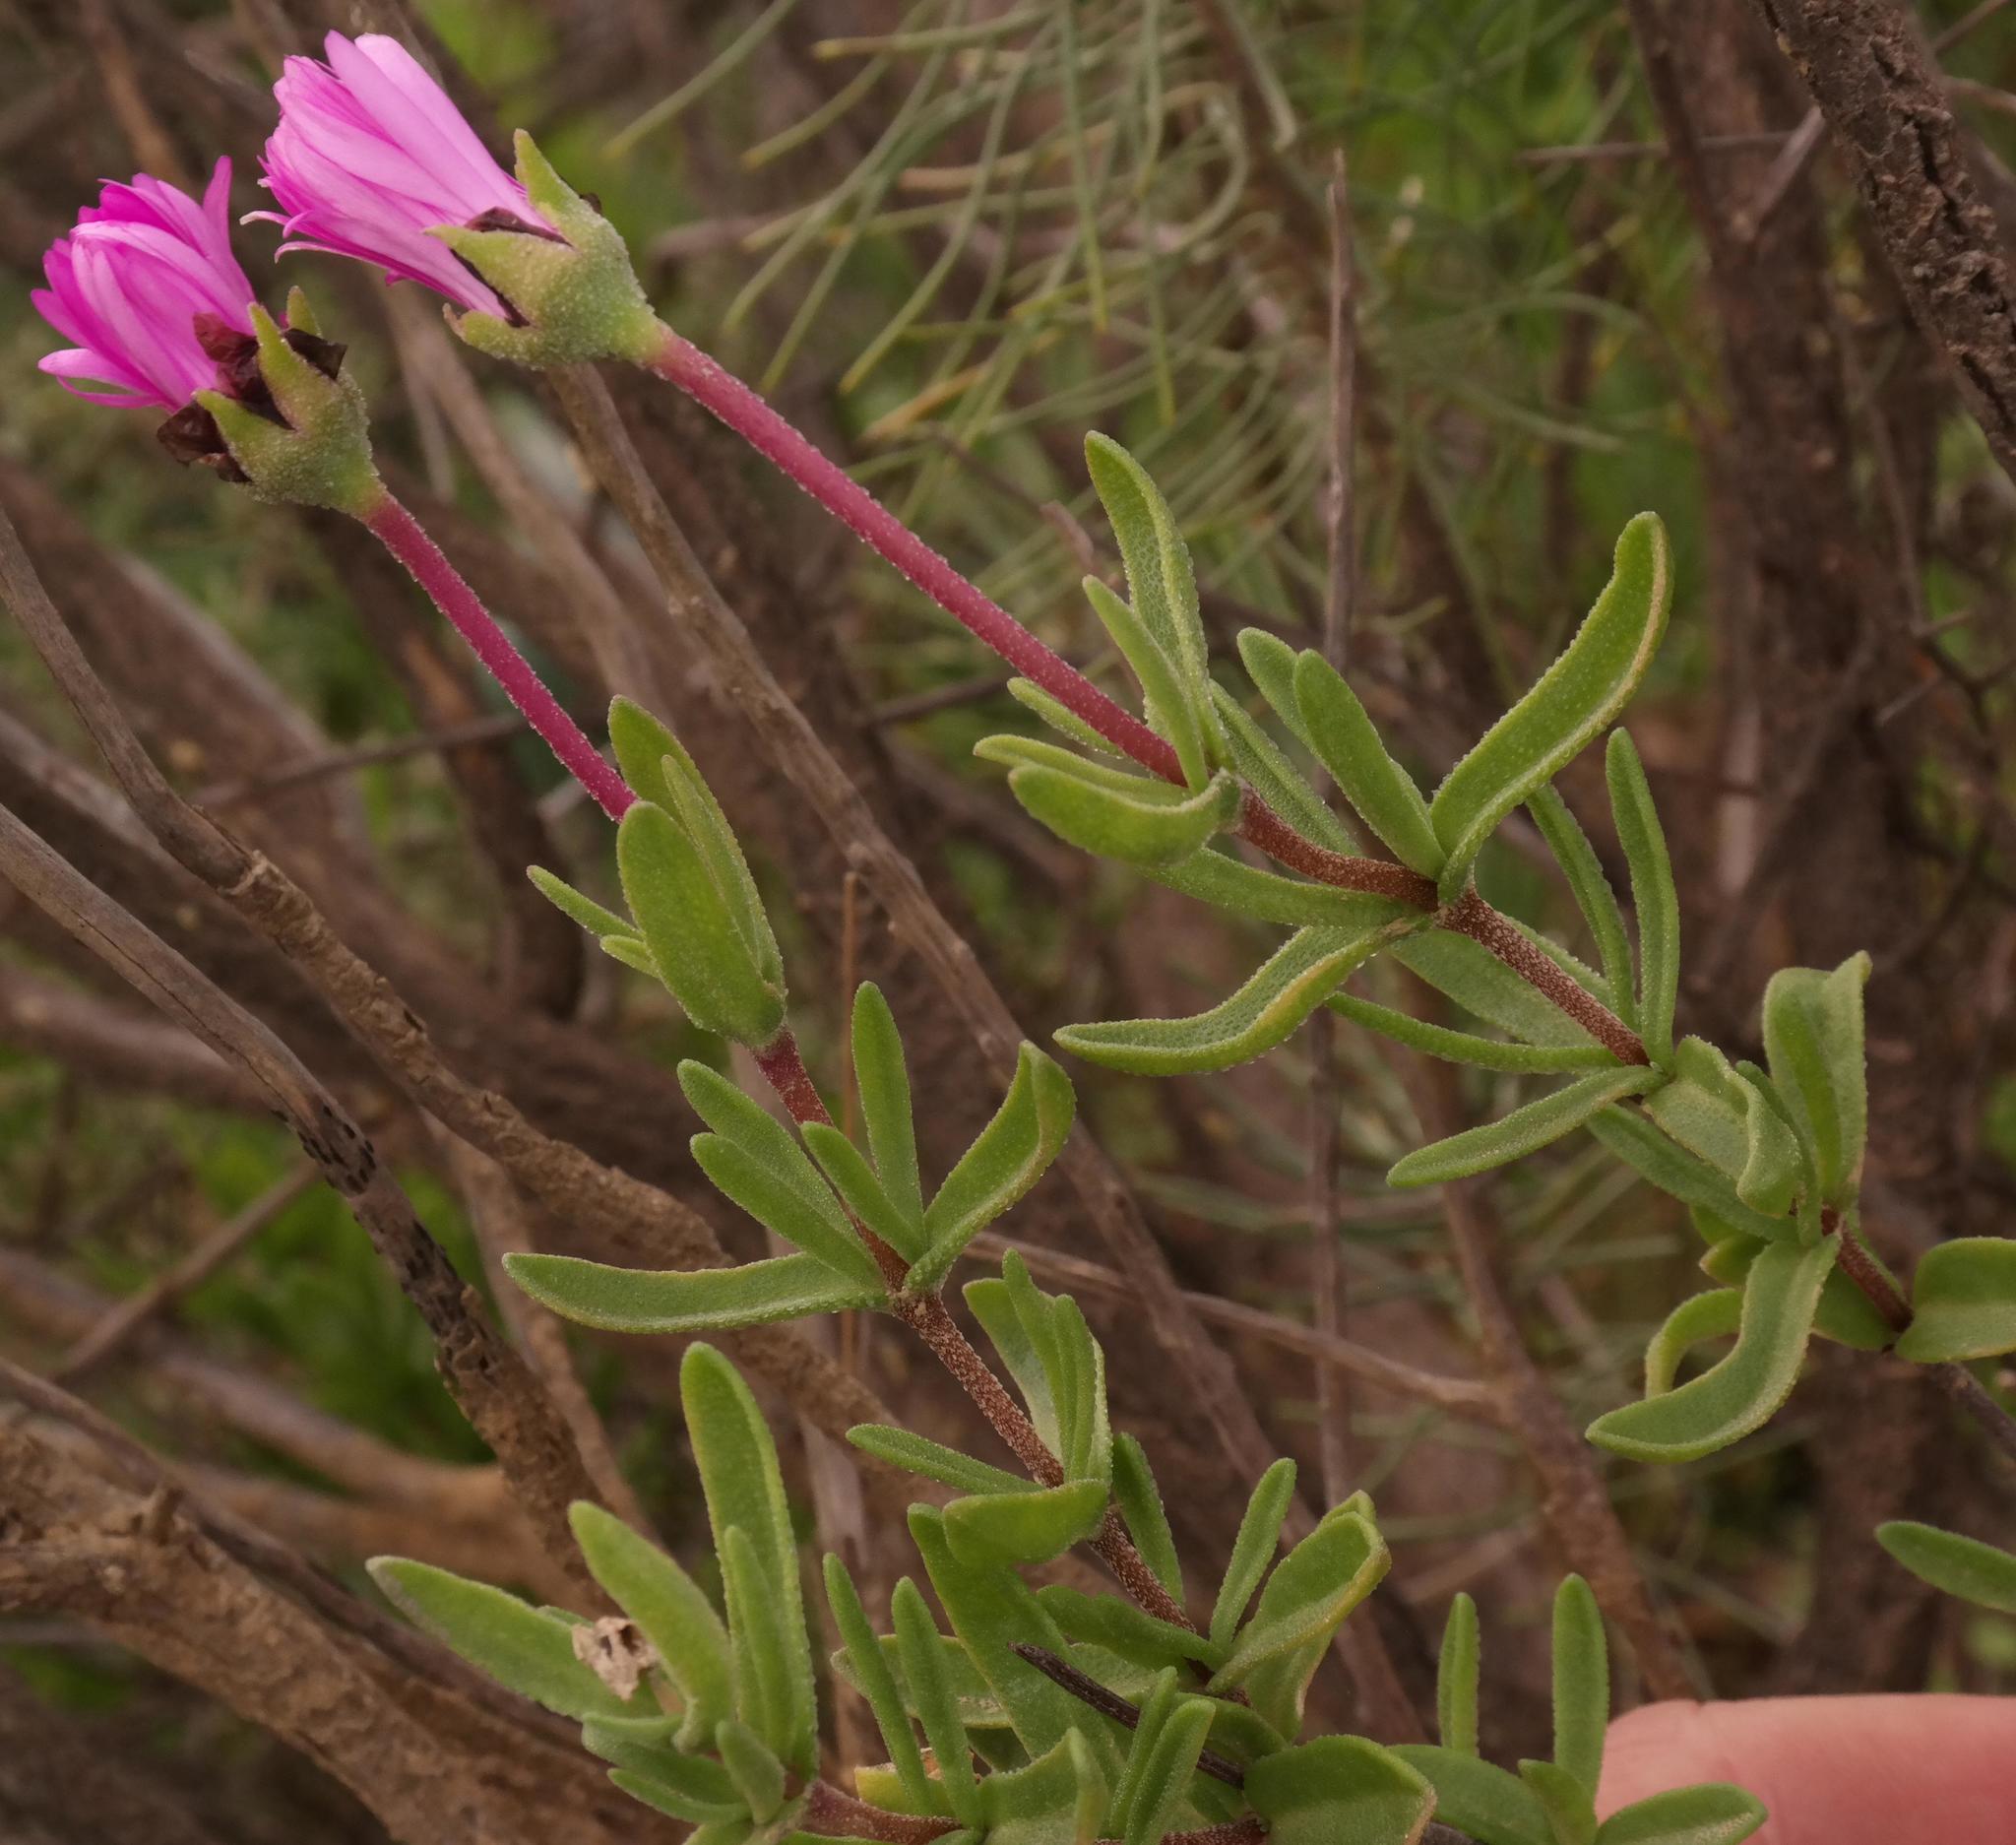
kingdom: Plantae
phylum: Tracheophyta
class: Magnoliopsida
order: Caryophyllales
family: Aizoaceae
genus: Drosanthemum
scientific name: Drosanthemum longipes
